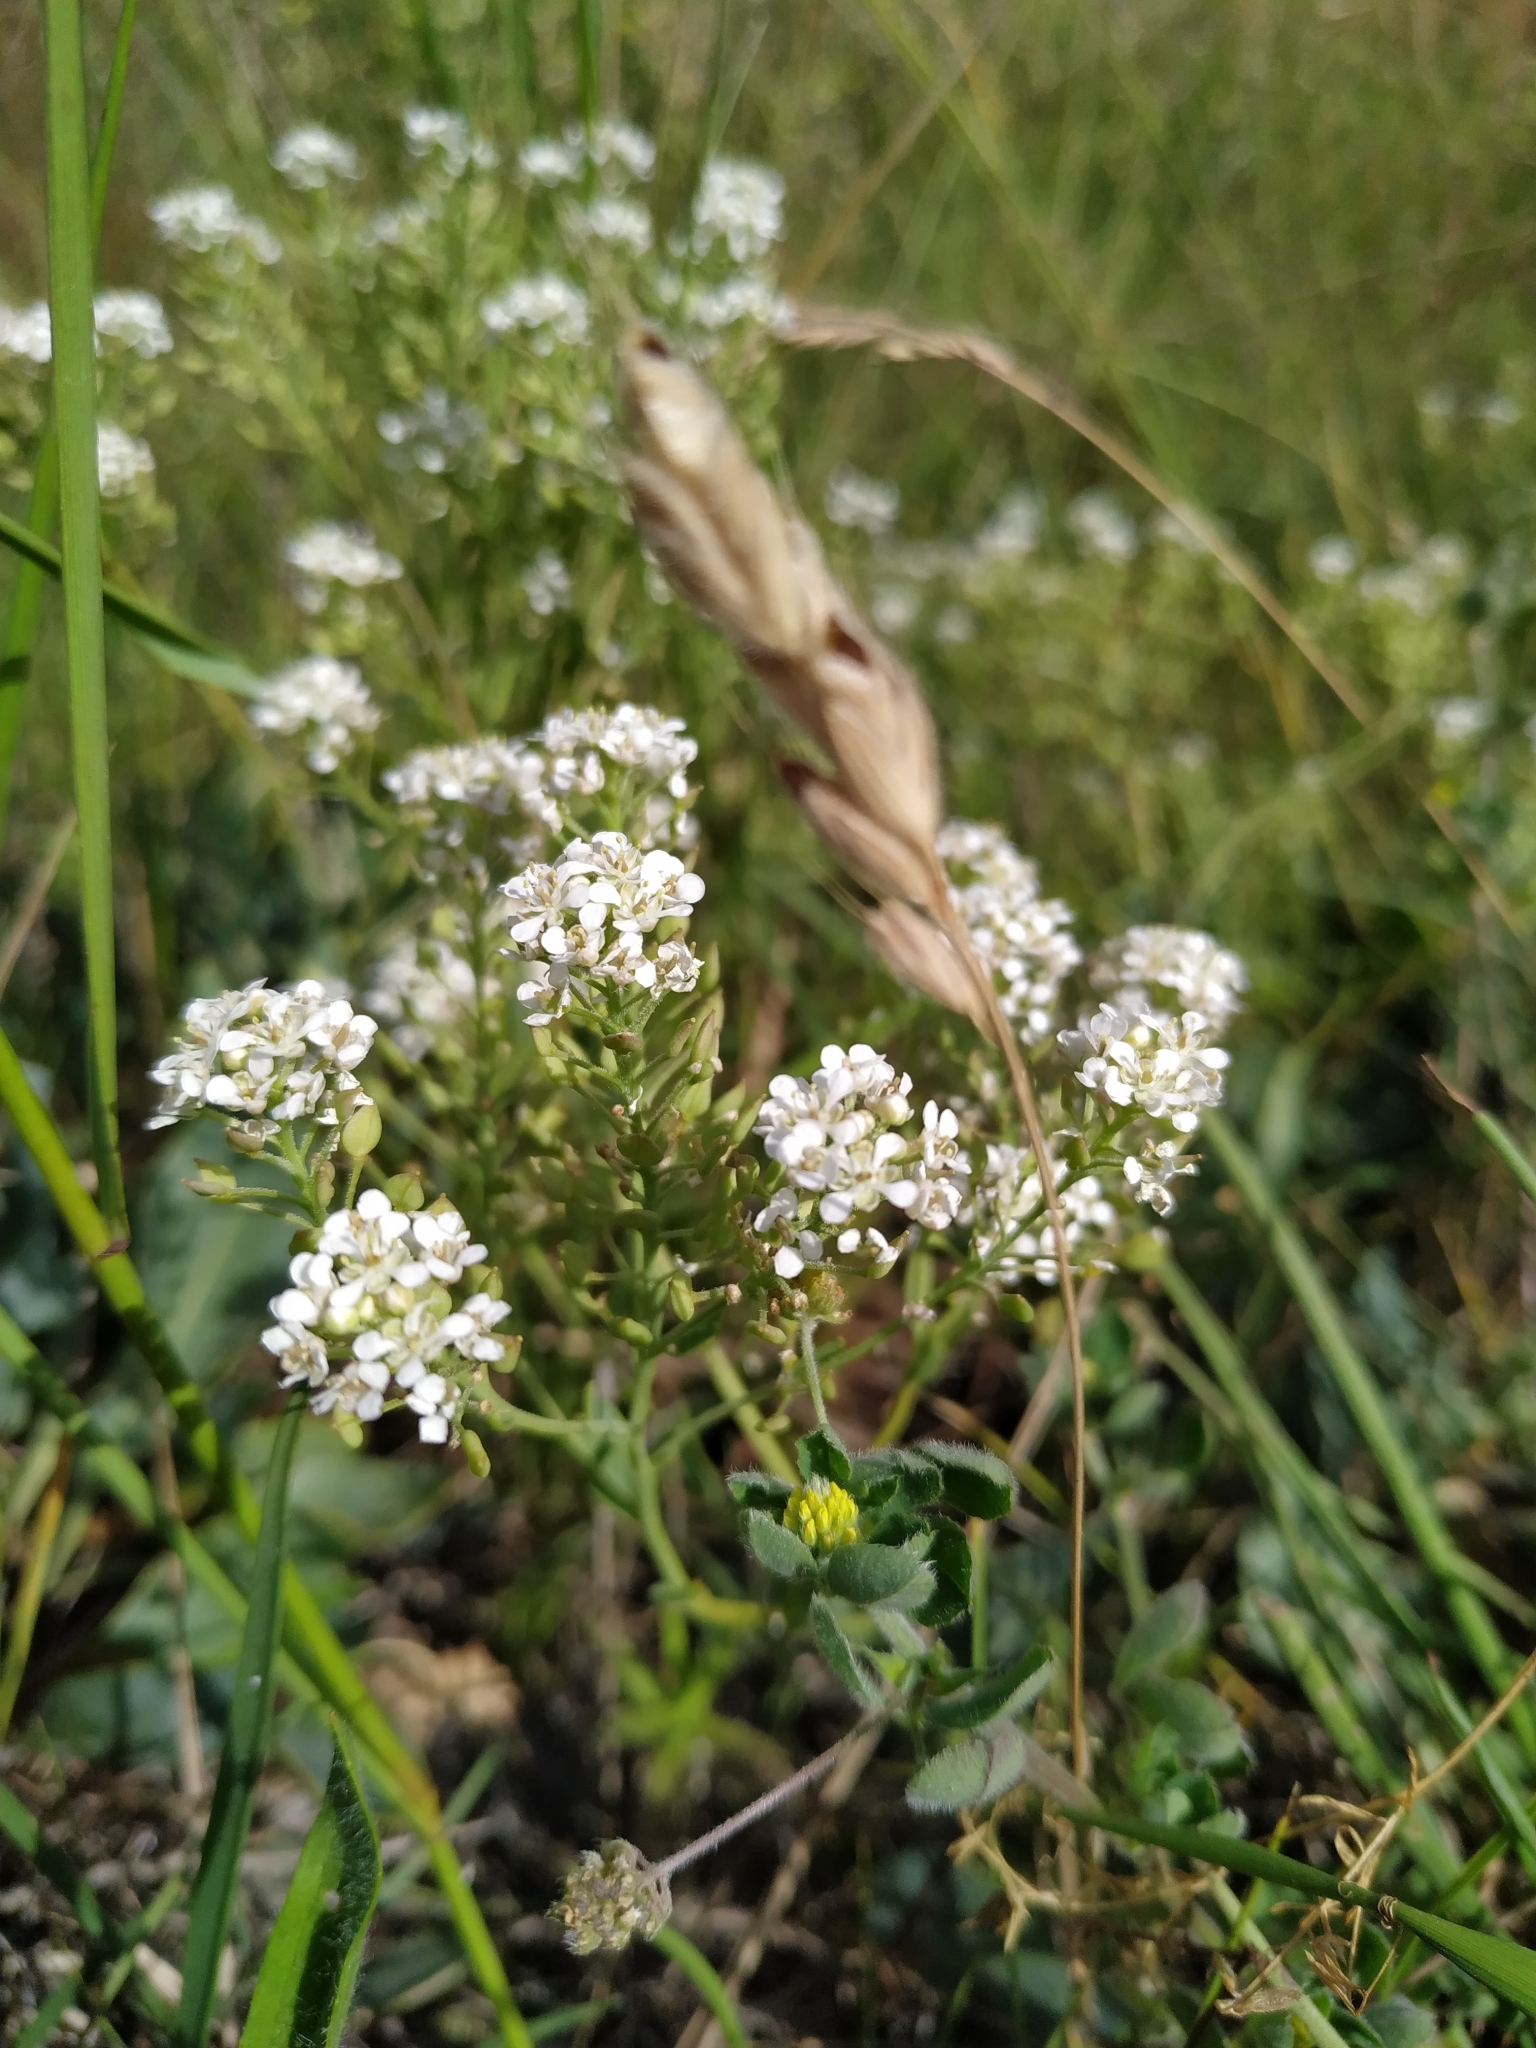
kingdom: Plantae
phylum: Tracheophyta
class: Magnoliopsida
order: Brassicales
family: Brassicaceae
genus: Lepidium
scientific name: Lepidium cartilagineum
